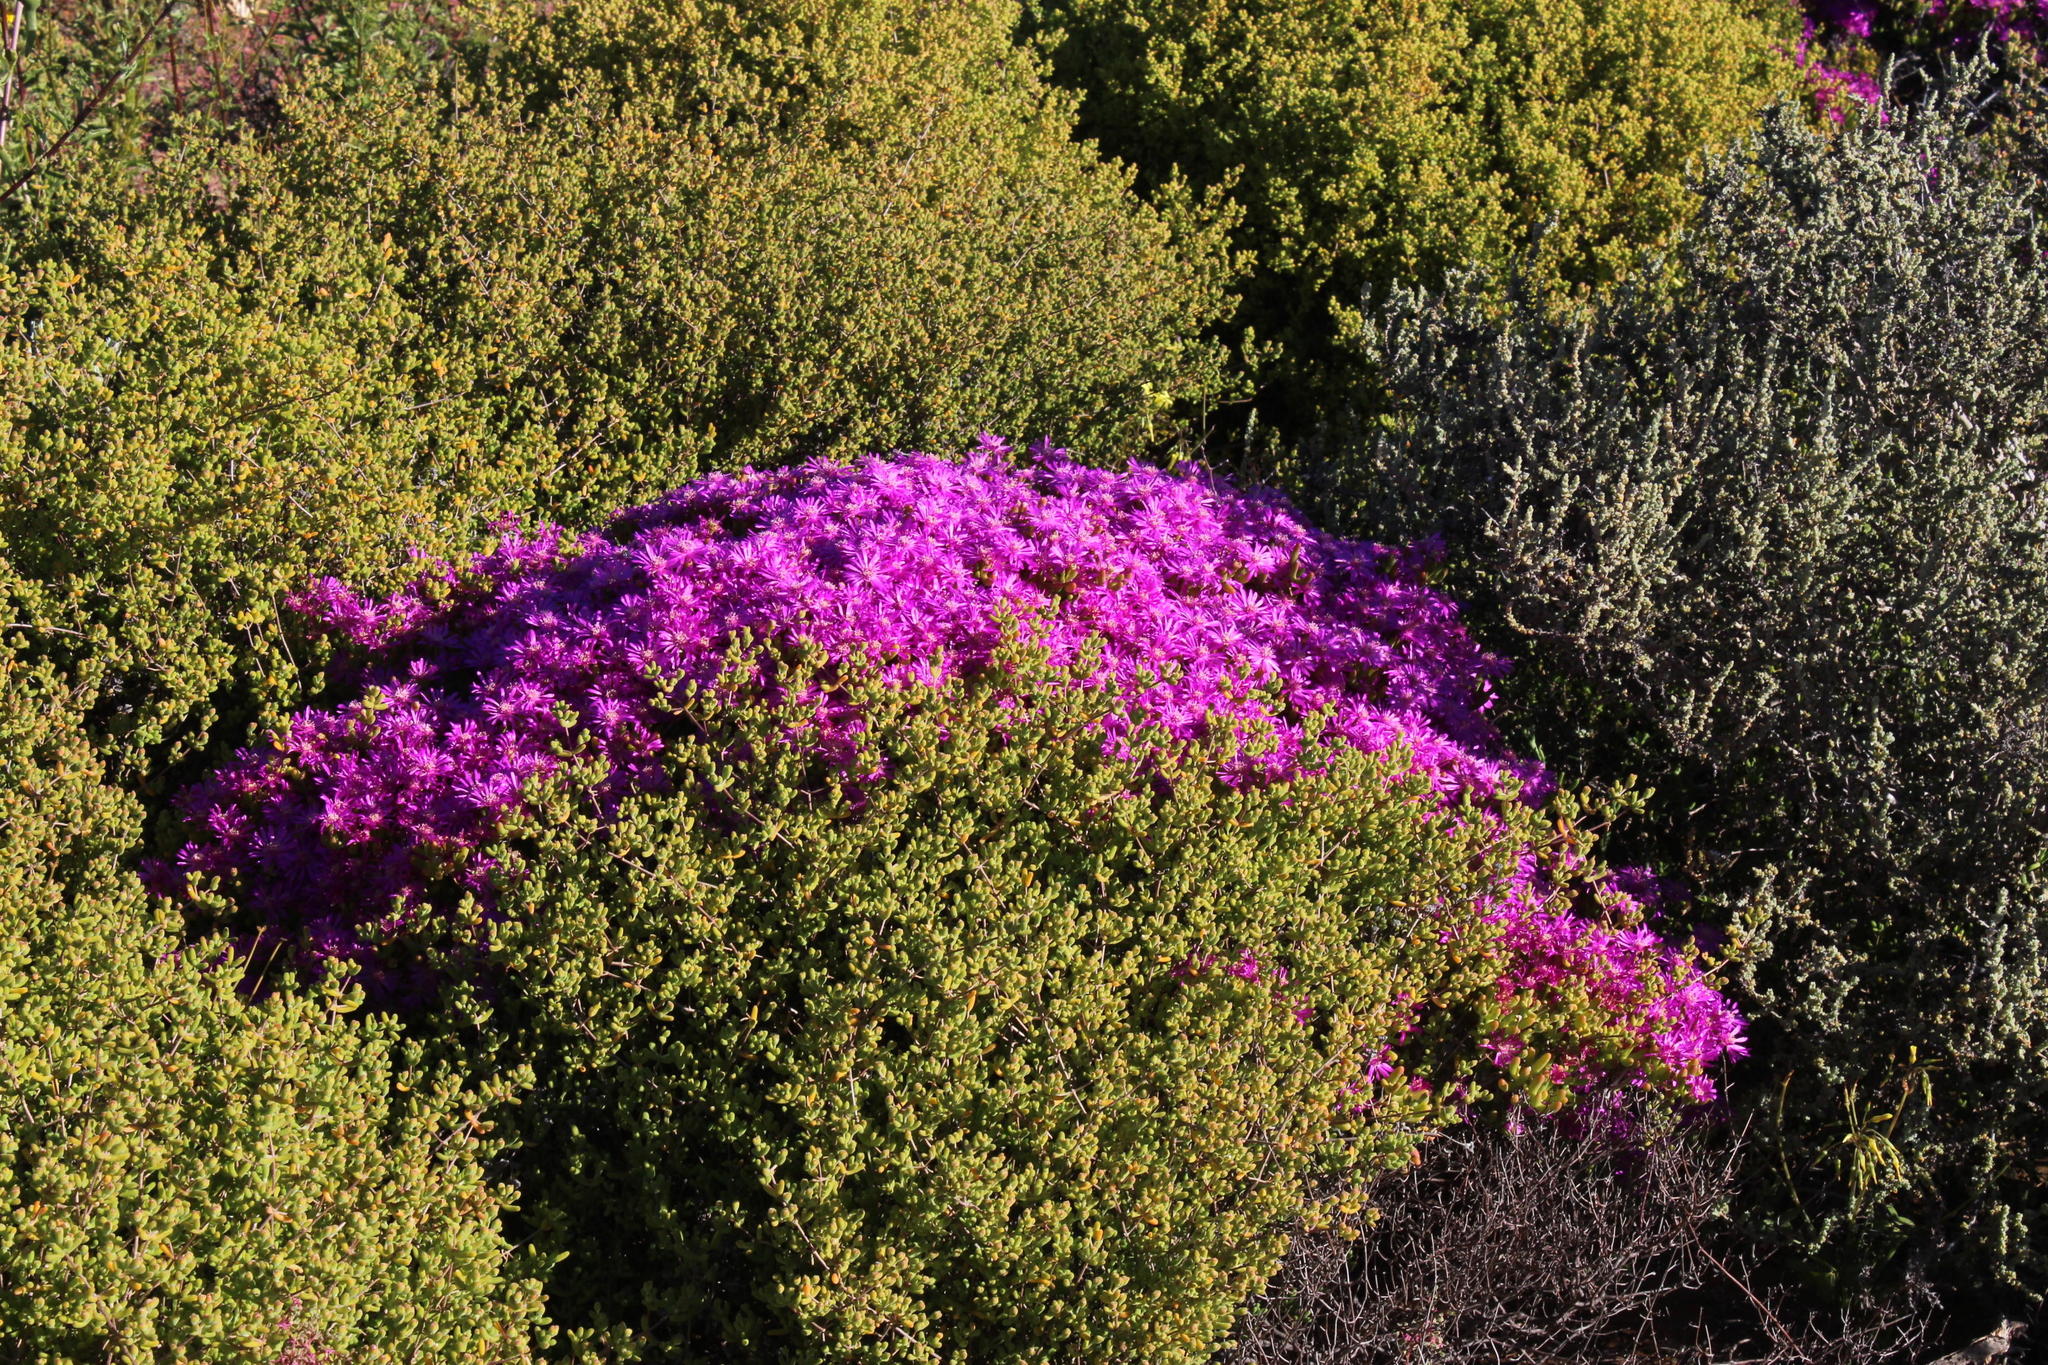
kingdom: Plantae
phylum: Tracheophyta
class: Magnoliopsida
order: Caryophyllales
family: Aizoaceae
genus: Lampranthus
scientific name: Lampranthus otzenianus
